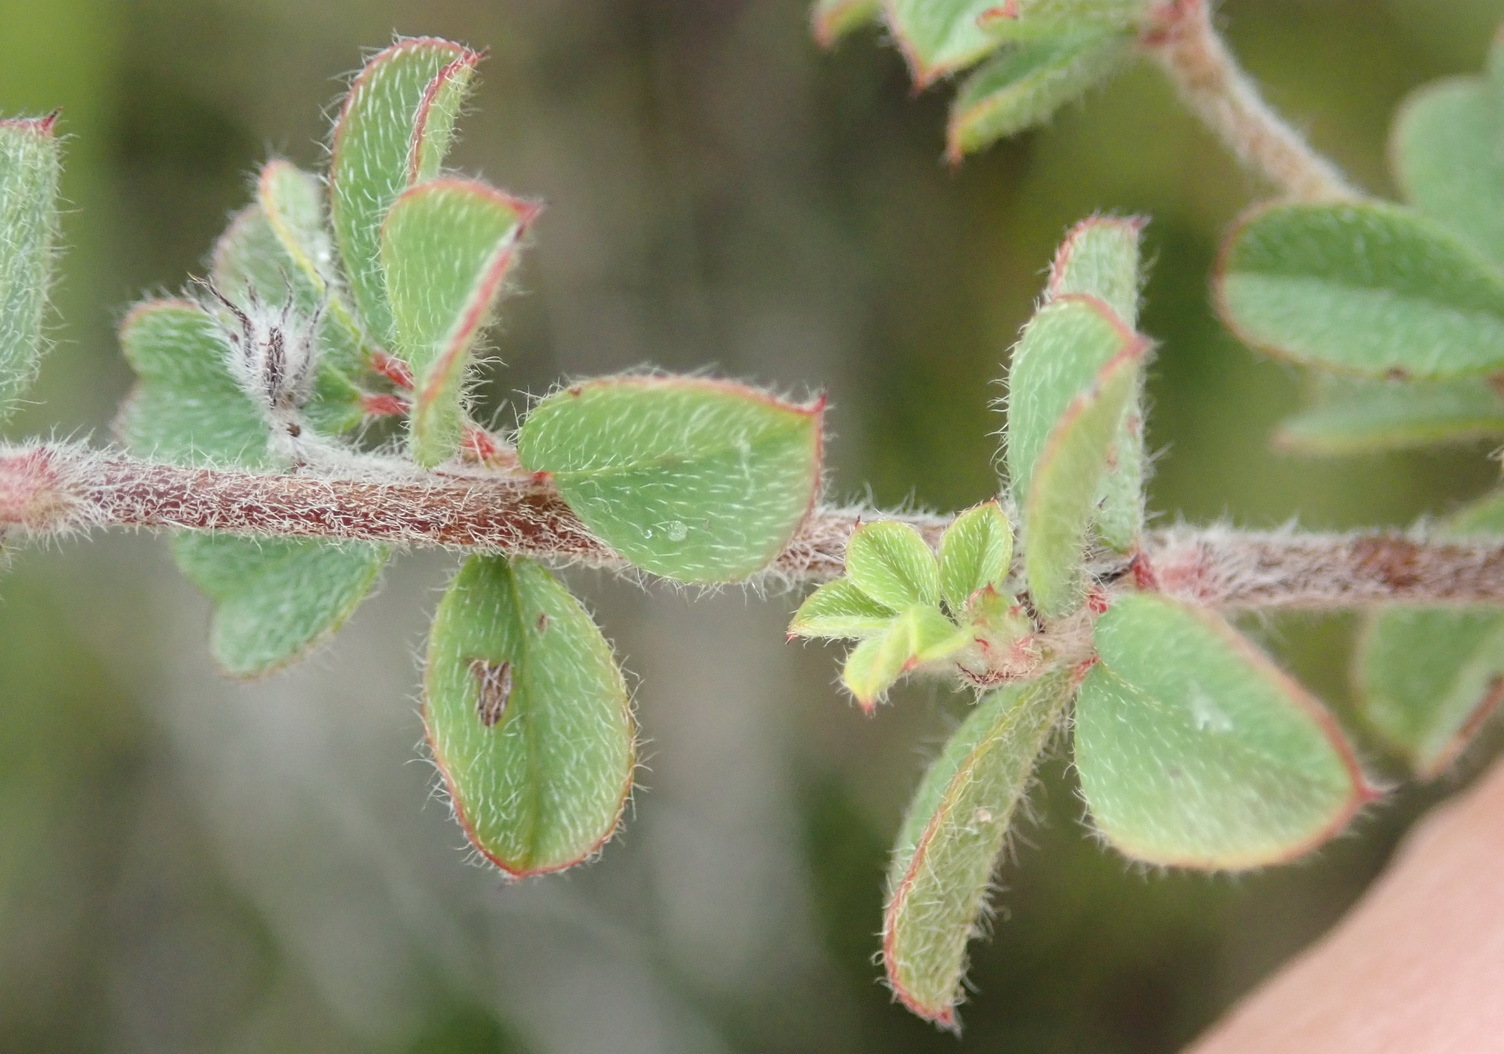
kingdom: Plantae
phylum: Tracheophyta
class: Magnoliopsida
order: Fabales
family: Fabaceae
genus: Indigofera
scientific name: Indigofera alopecuroides
